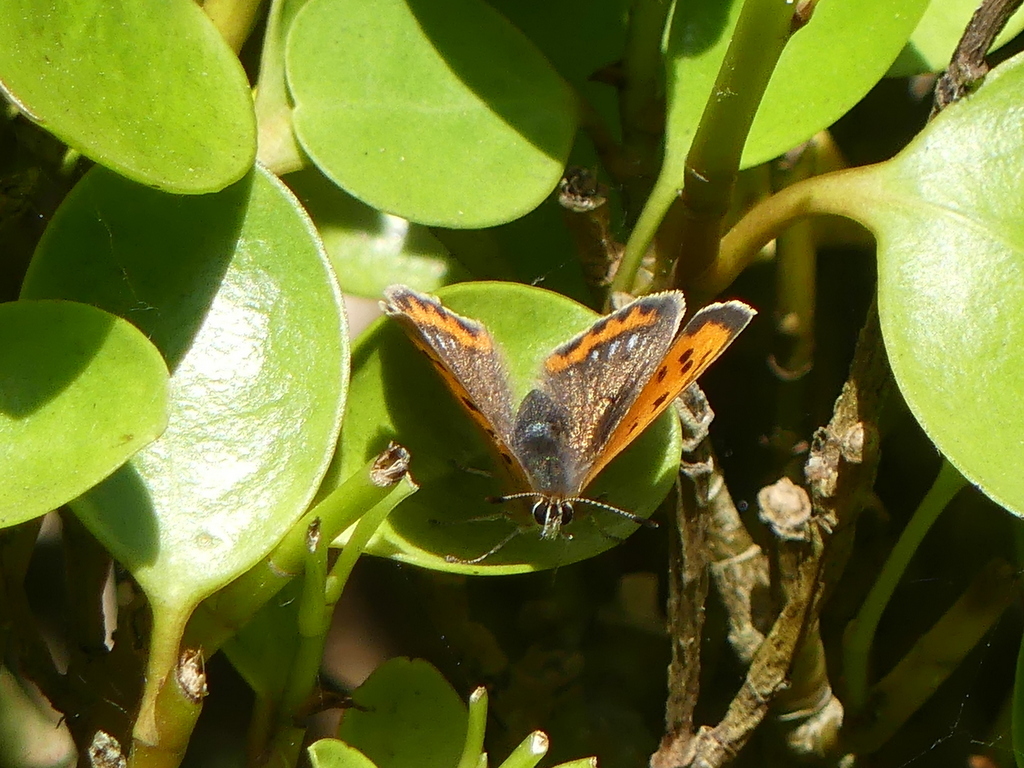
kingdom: Animalia
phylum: Arthropoda
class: Insecta
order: Lepidoptera
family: Lycaenidae
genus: Lycaena
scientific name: Lycaena phlaeas
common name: Small copper
